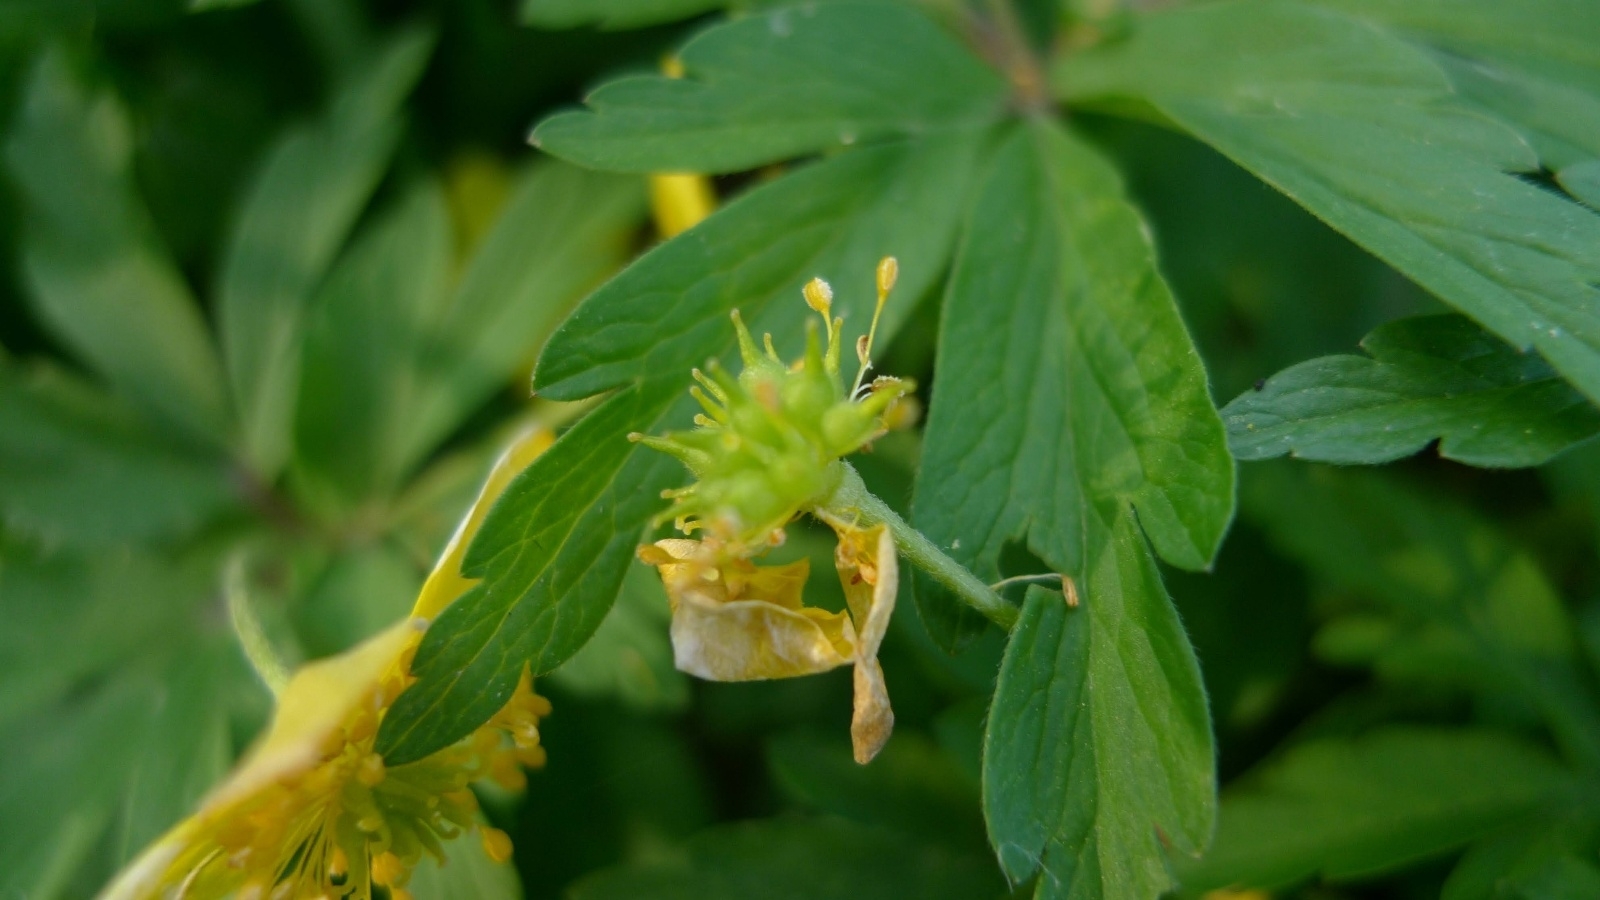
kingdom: Plantae
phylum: Tracheophyta
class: Magnoliopsida
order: Ranunculales
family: Ranunculaceae
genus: Anemone
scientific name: Anemone ranunculoides
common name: Yellow anemone
